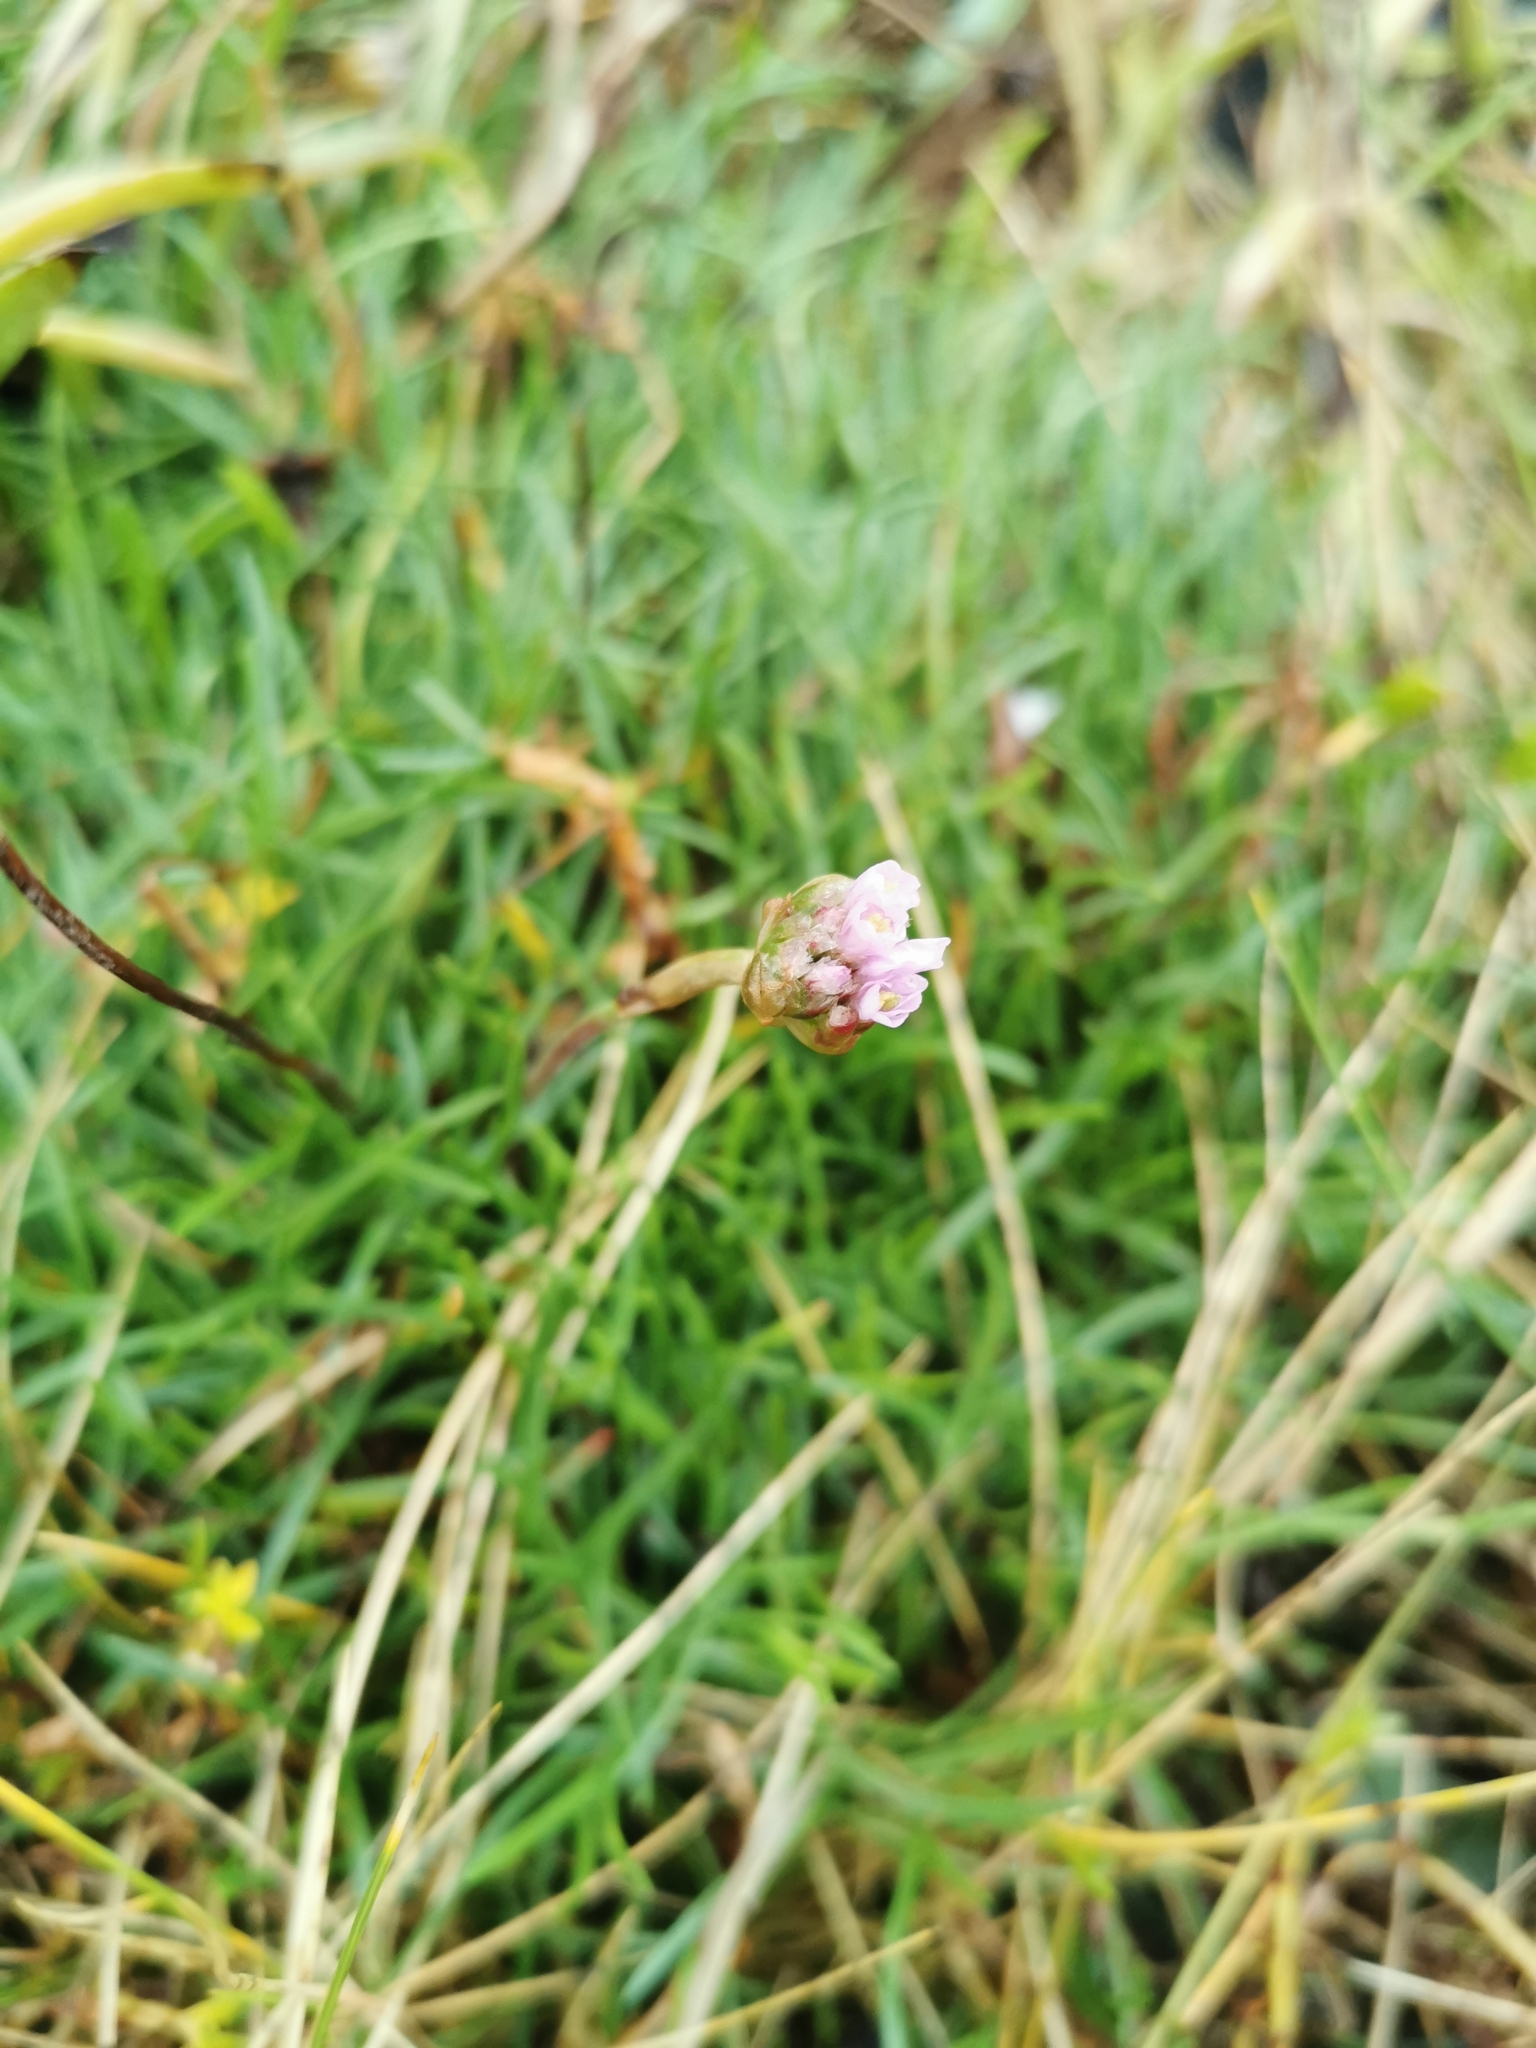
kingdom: Plantae
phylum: Tracheophyta
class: Magnoliopsida
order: Caryophyllales
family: Plumbaginaceae
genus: Armeria
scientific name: Armeria maritima
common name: Thrift
